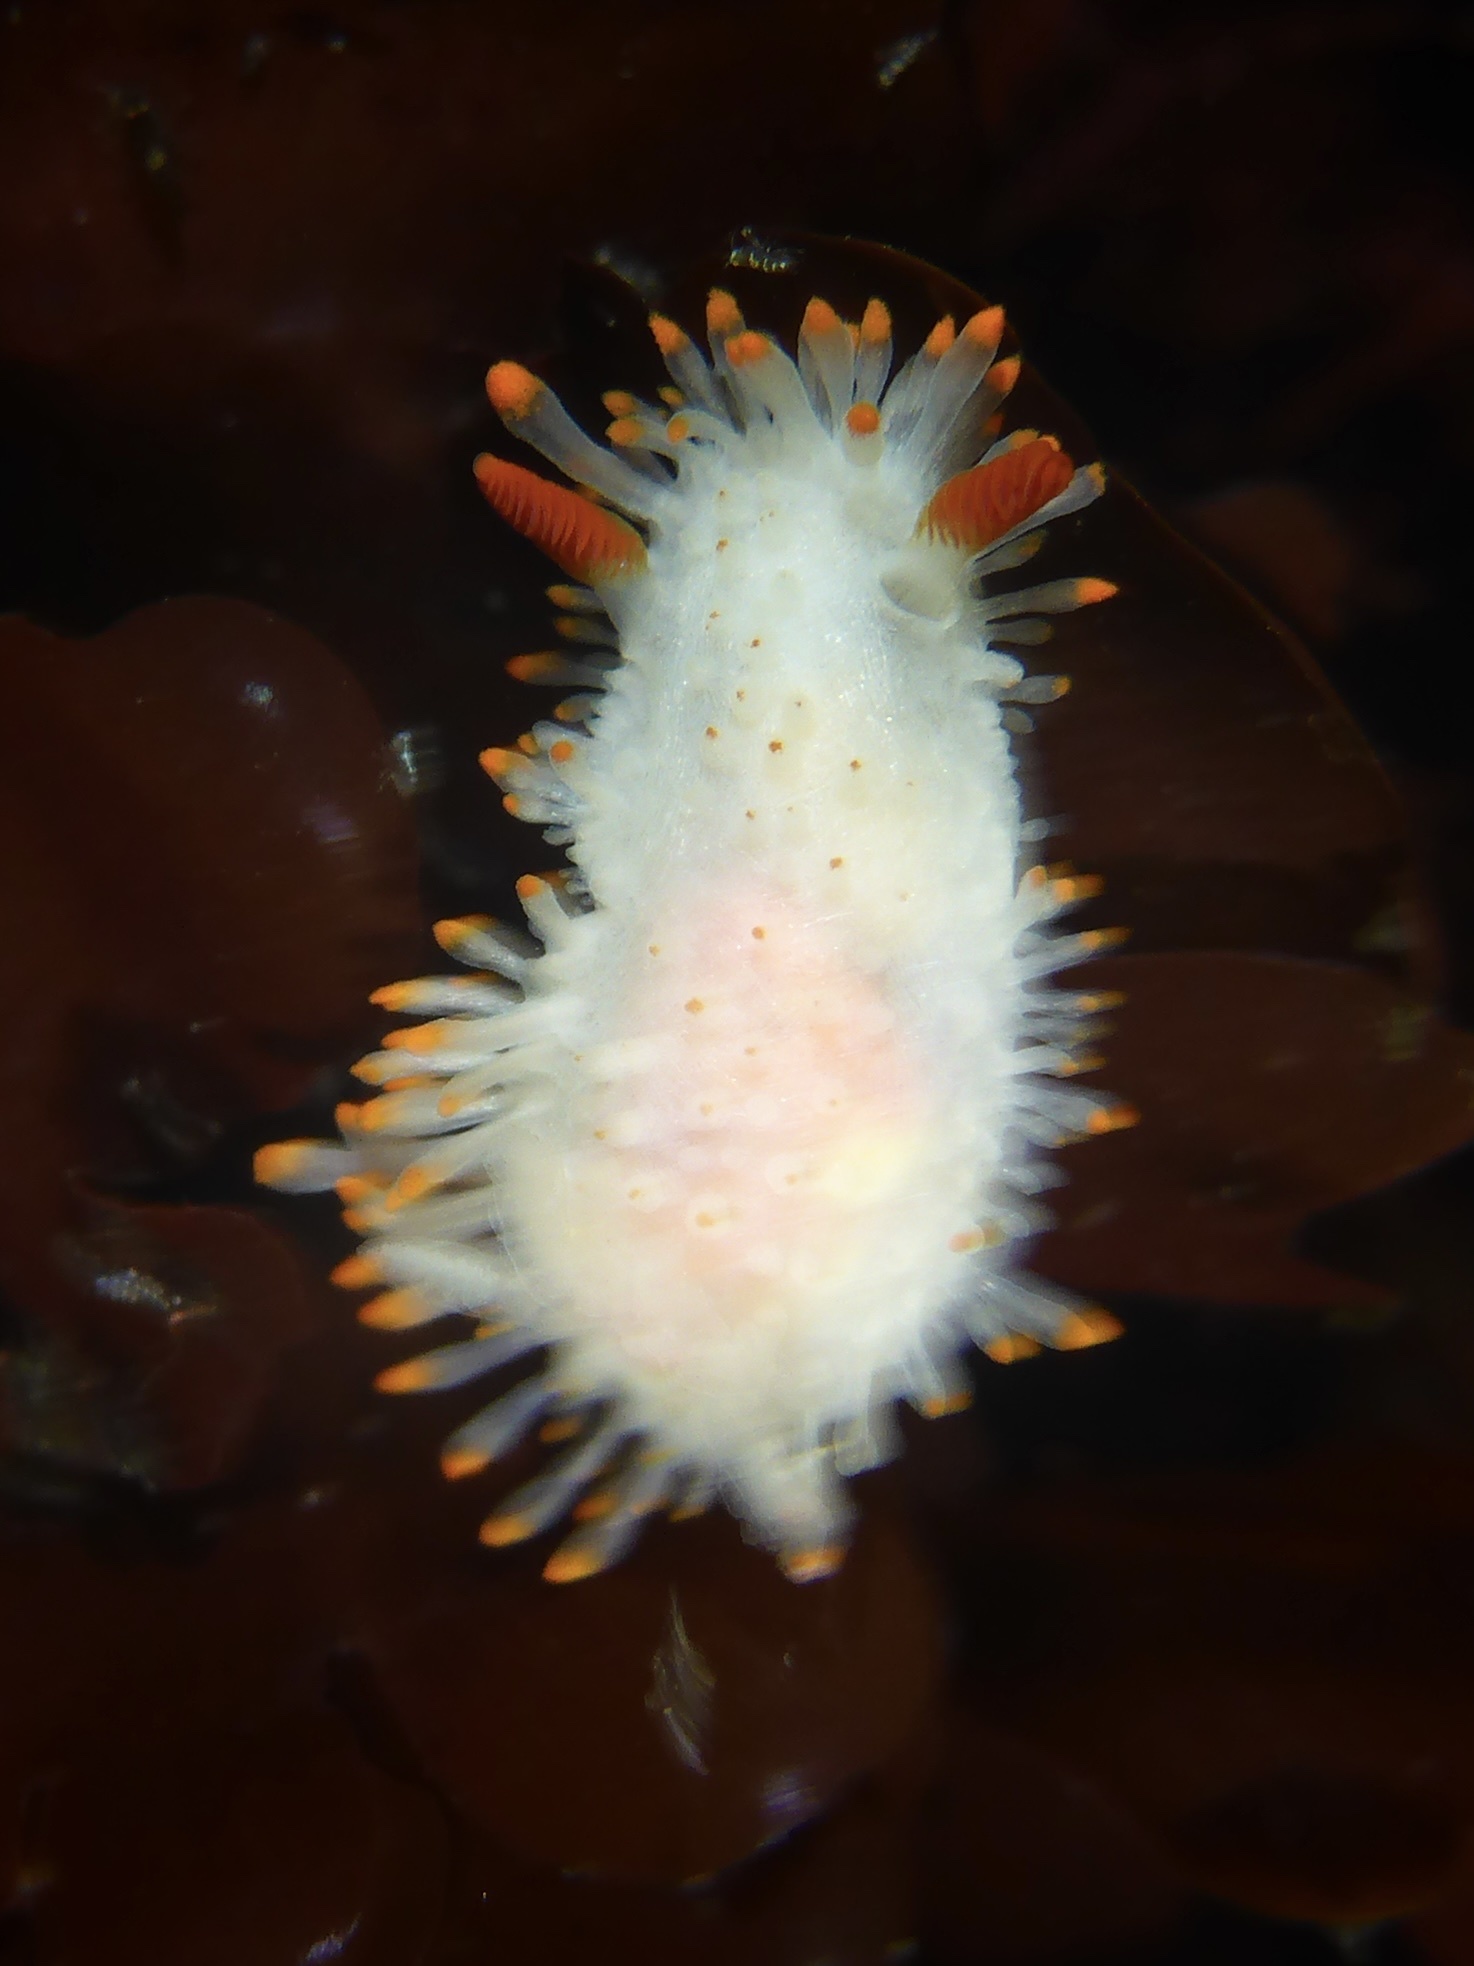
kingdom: Animalia
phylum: Mollusca
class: Gastropoda
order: Nudibranchia
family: Polyceridae
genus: Limacia
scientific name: Limacia cockerelli
